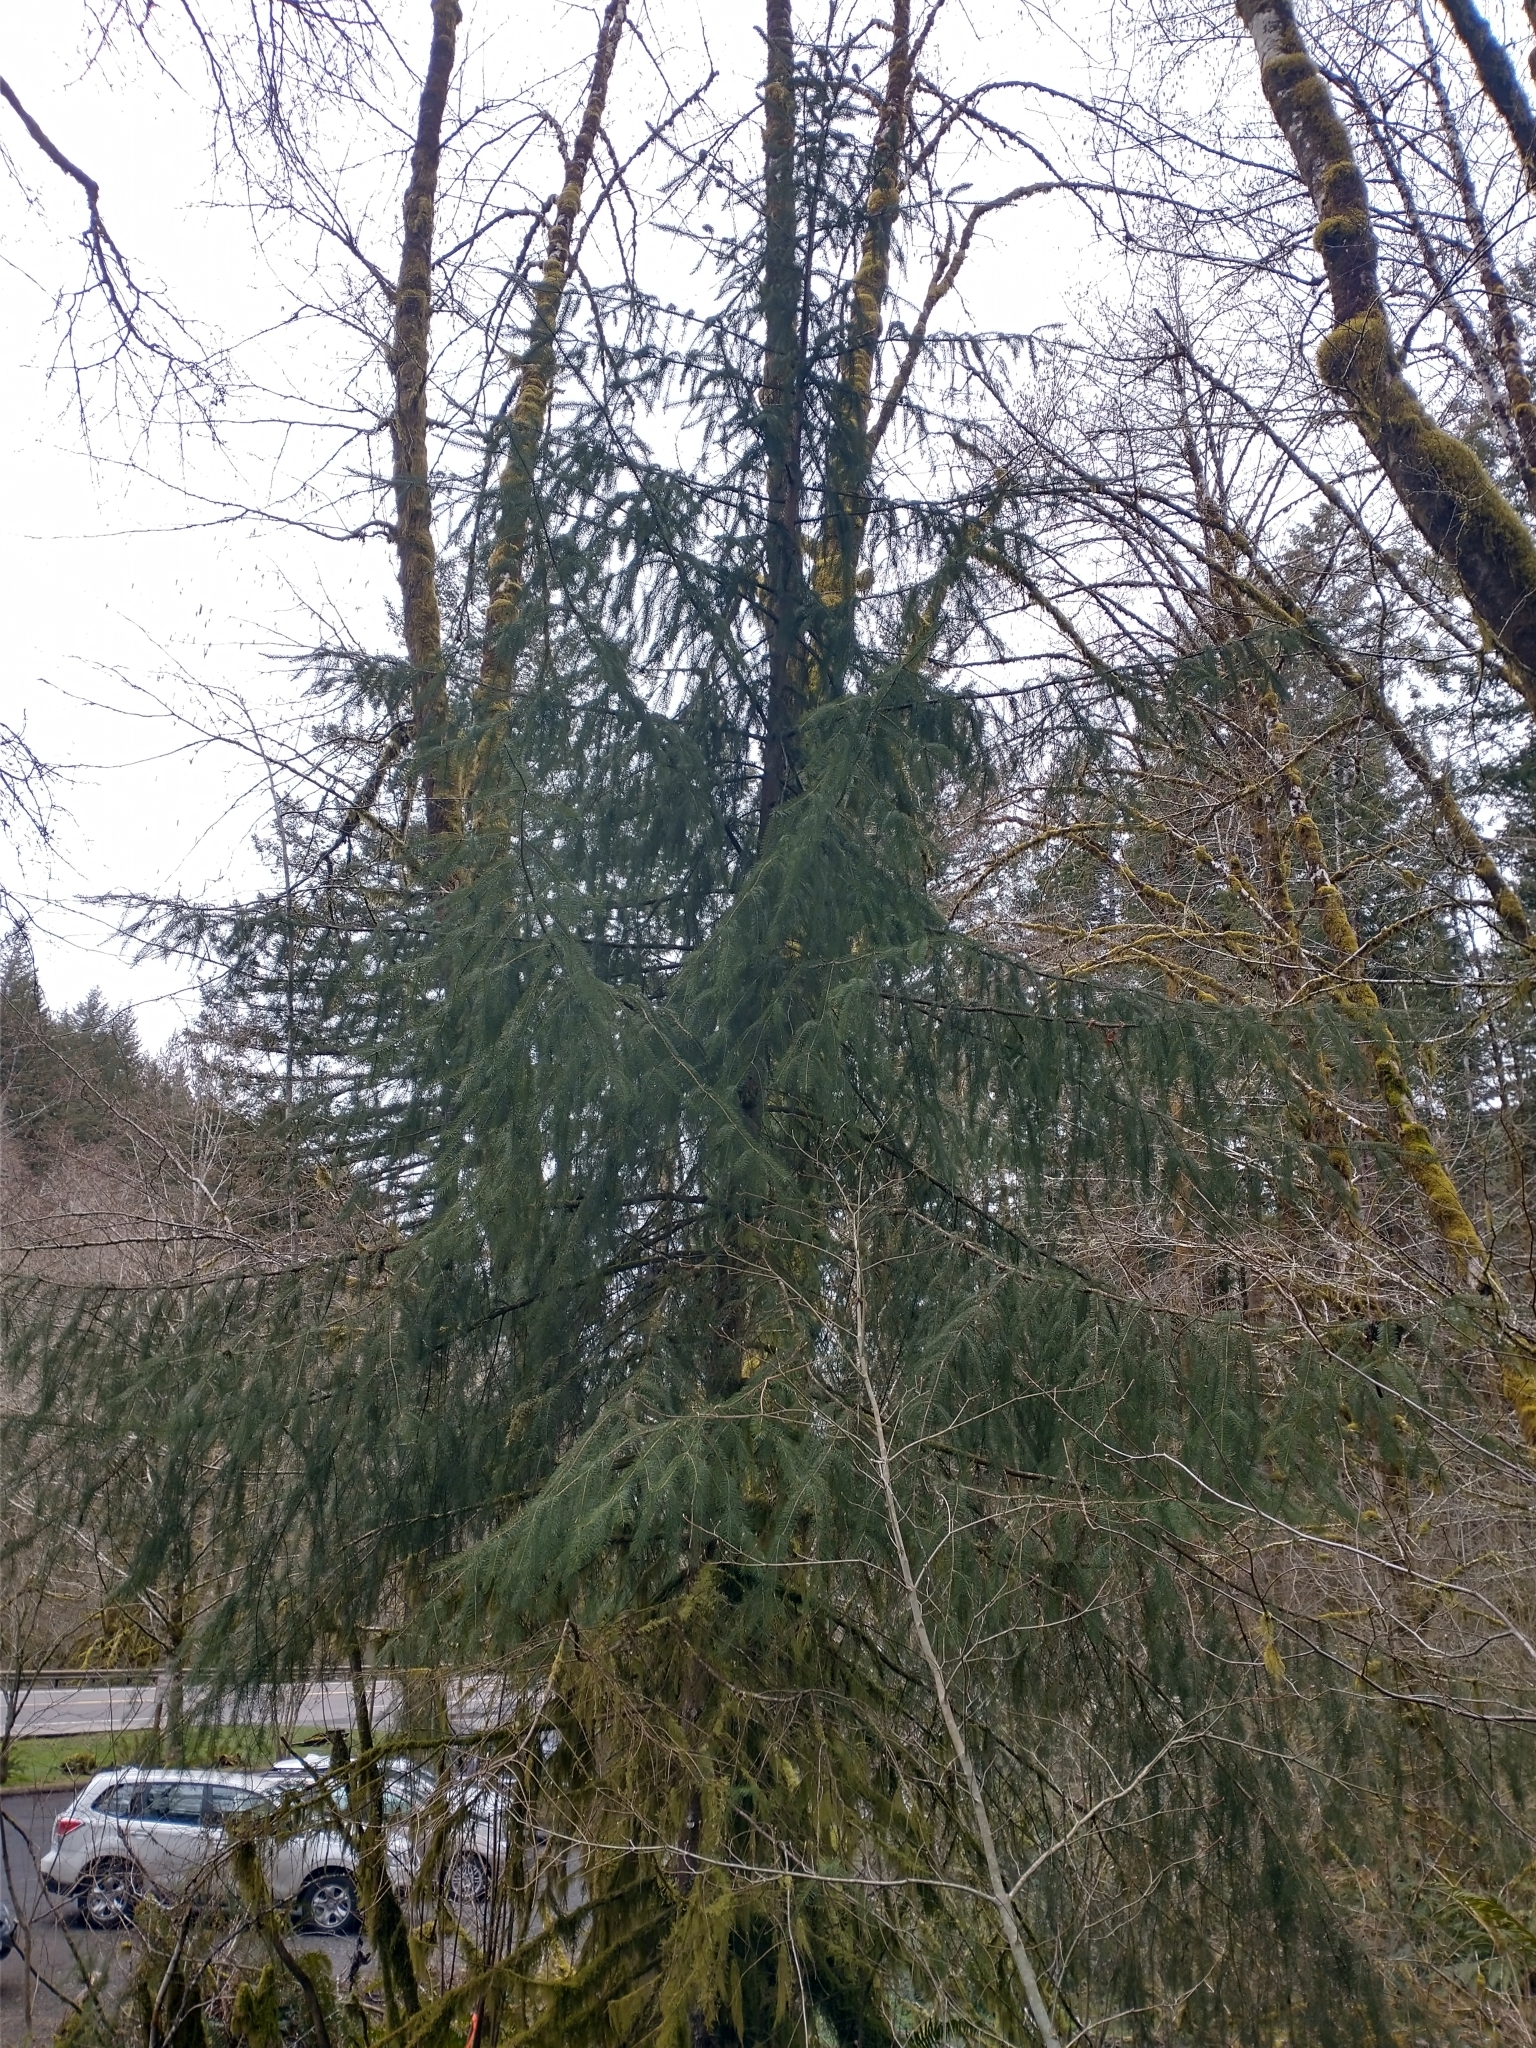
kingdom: Plantae
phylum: Tracheophyta
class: Pinopsida
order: Pinales
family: Pinaceae
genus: Picea
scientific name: Picea sitchensis
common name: Sitka spruce
